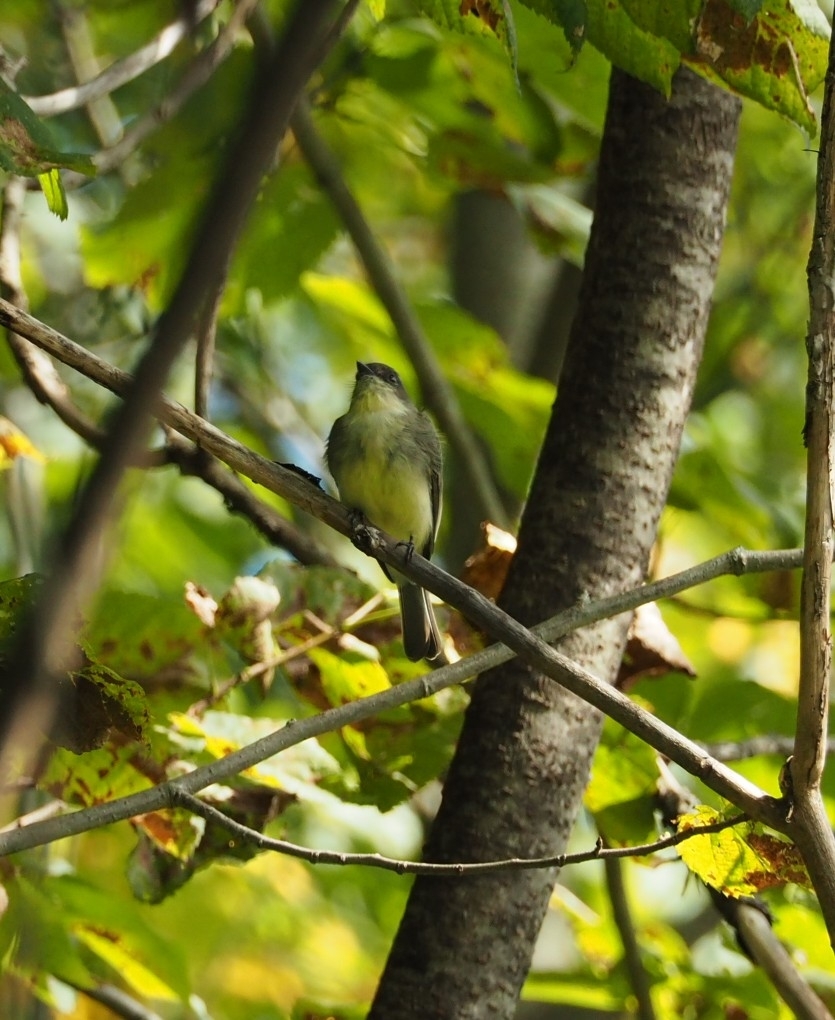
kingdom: Animalia
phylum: Chordata
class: Aves
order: Passeriformes
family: Tyrannidae
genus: Sayornis
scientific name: Sayornis phoebe
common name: Eastern phoebe
